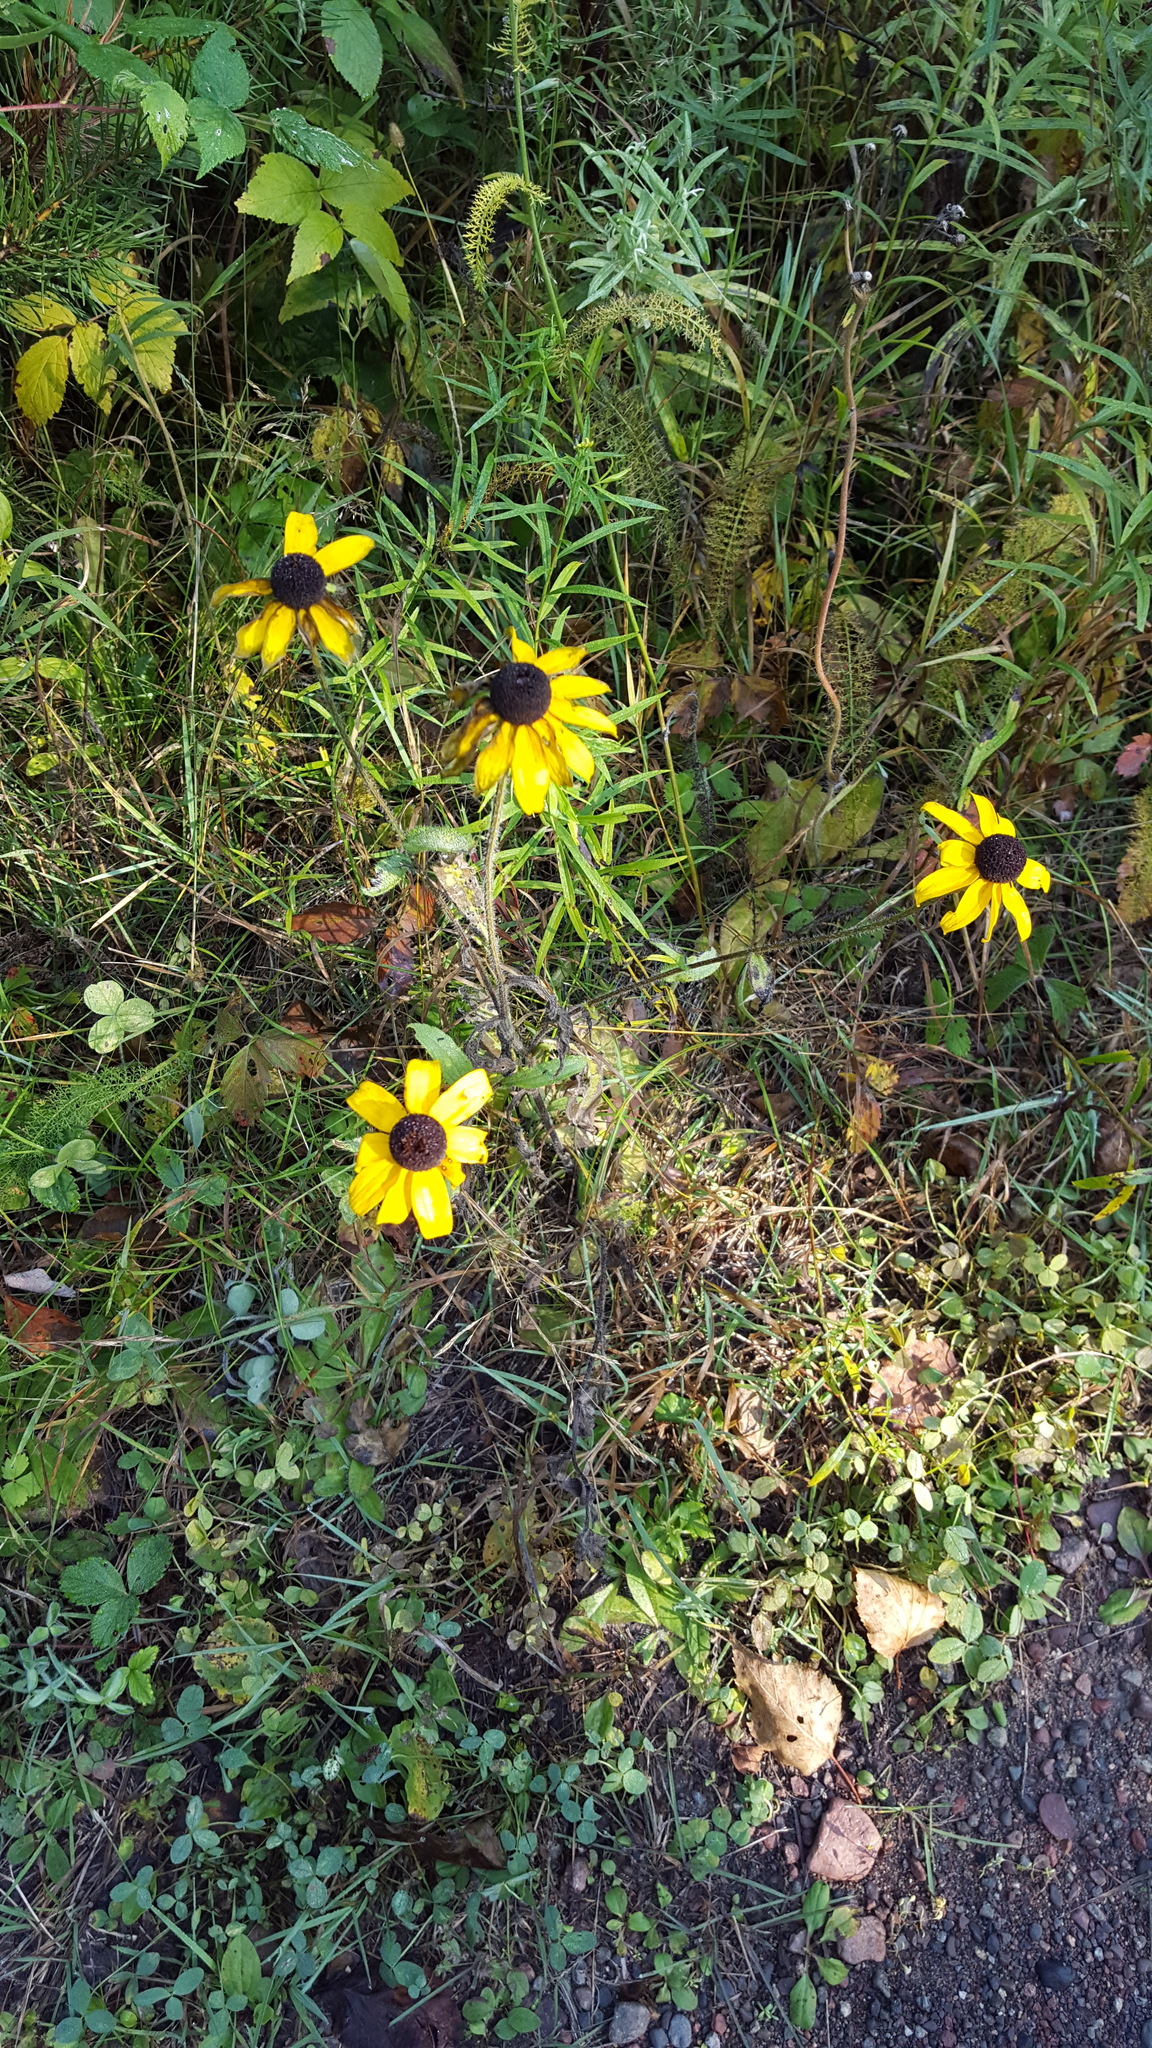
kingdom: Plantae
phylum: Tracheophyta
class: Magnoliopsida
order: Asterales
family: Asteraceae
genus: Rudbeckia
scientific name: Rudbeckia hirta
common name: Black-eyed-susan
